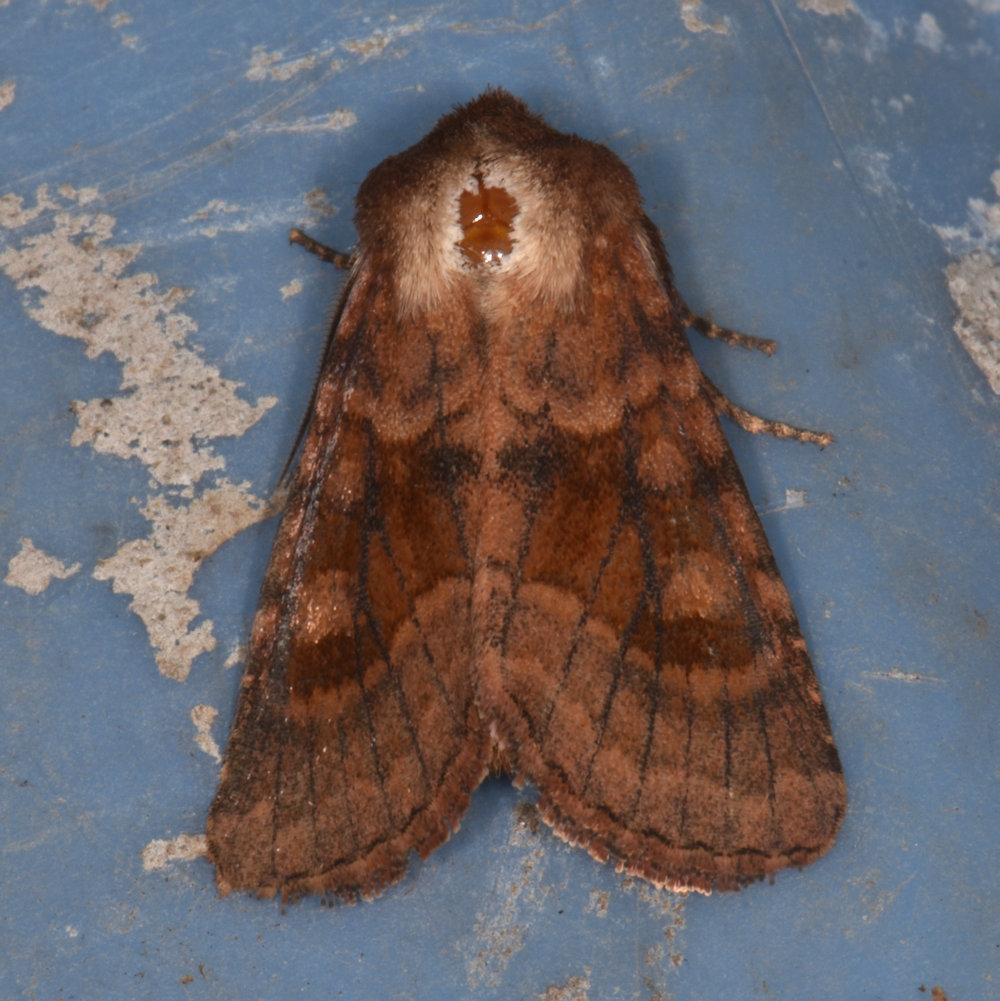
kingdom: Animalia
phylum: Arthropoda
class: Insecta
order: Lepidoptera
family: Noctuidae
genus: Nephelodes
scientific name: Nephelodes minians
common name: Bronzed cutworm
